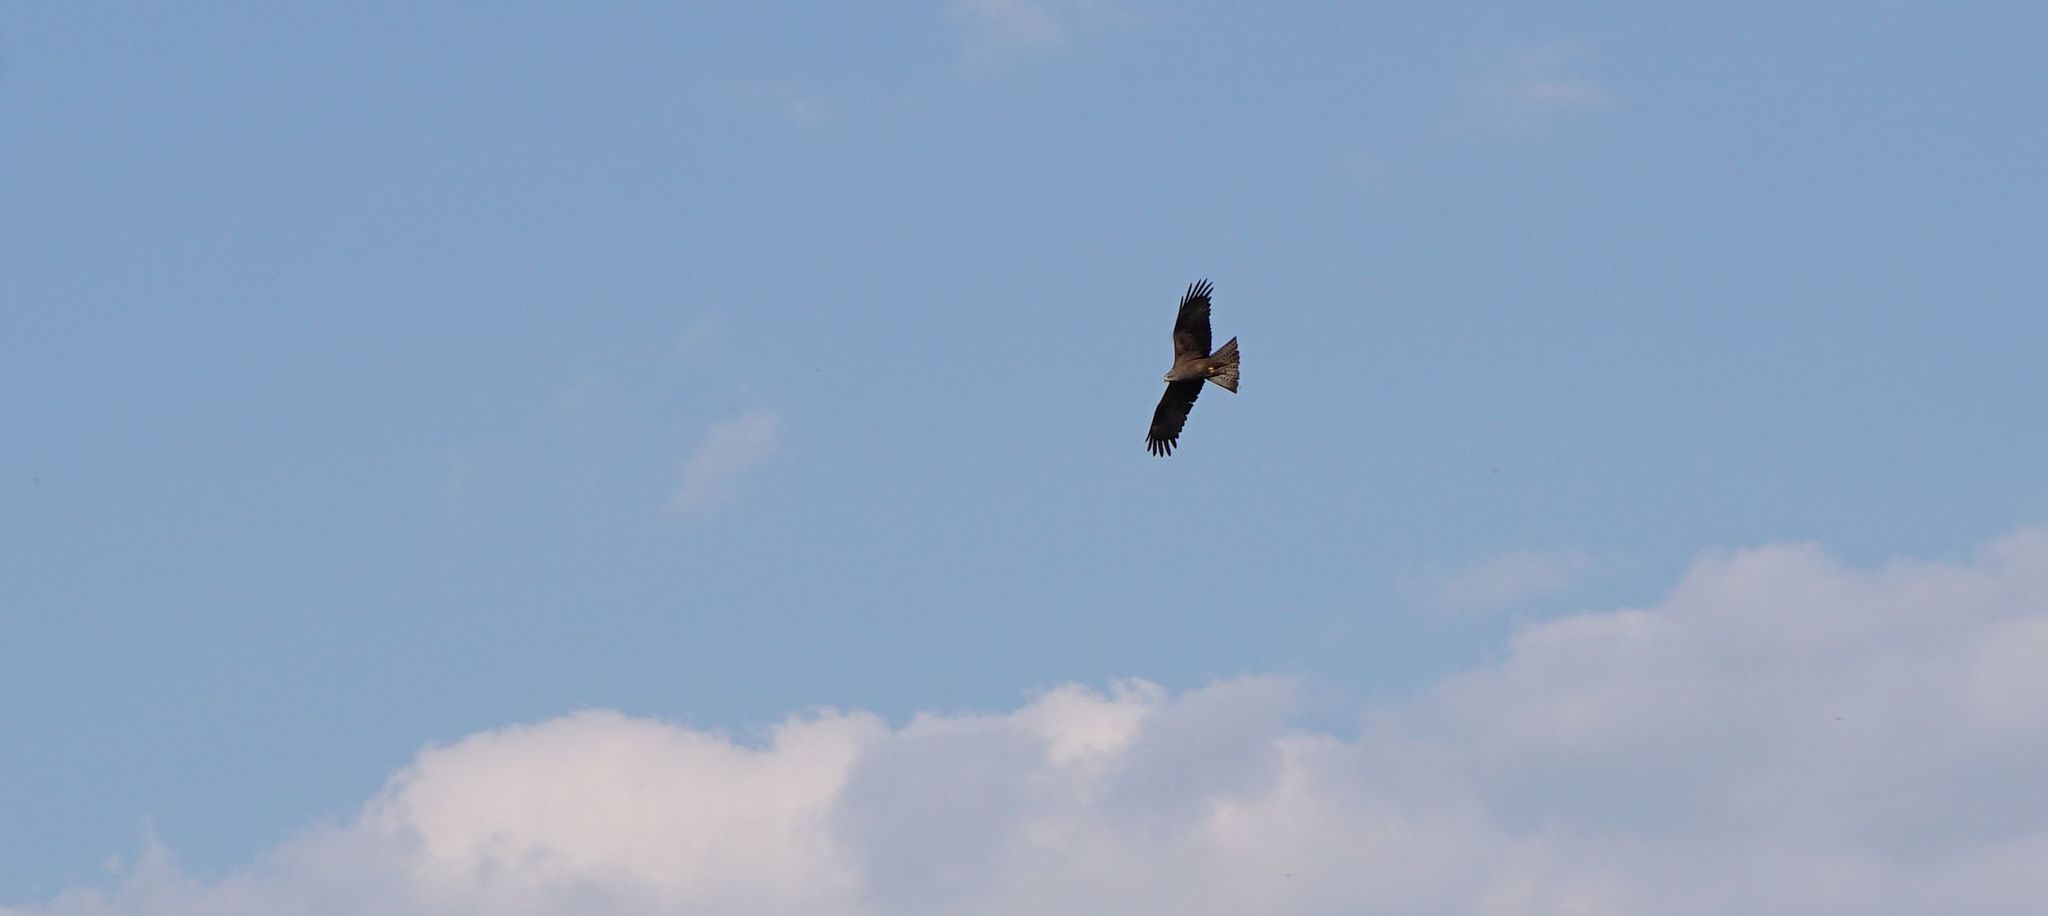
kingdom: Animalia
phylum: Chordata
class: Aves
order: Accipitriformes
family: Accipitridae
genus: Milvus
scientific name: Milvus migrans
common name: Black kite
